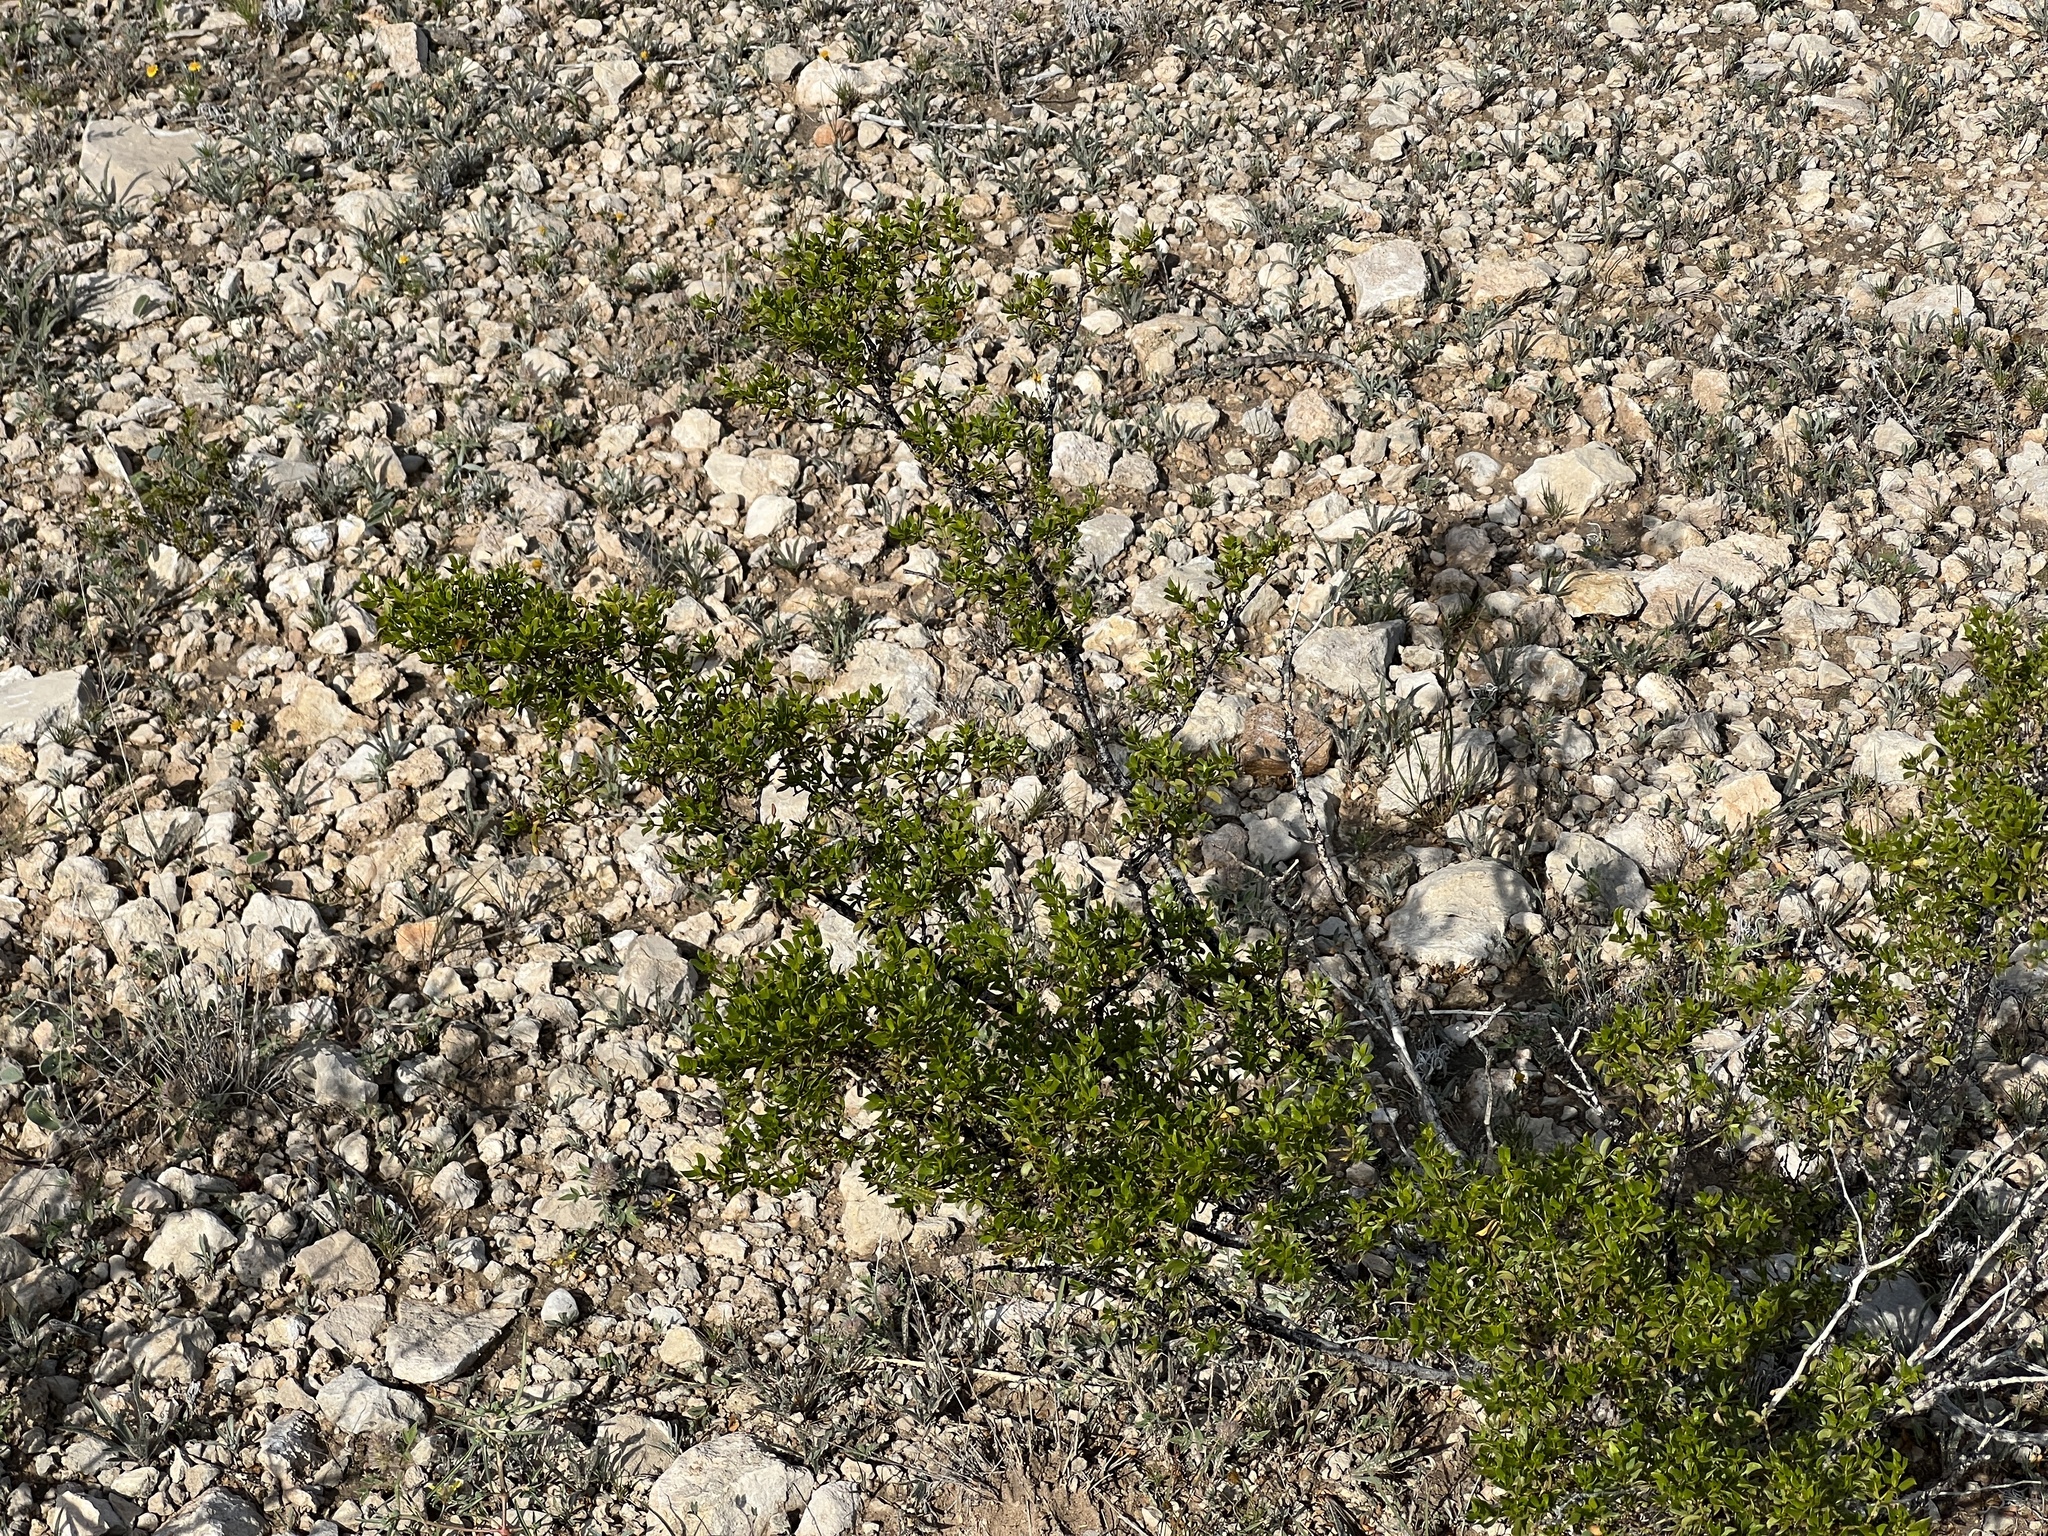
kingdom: Plantae
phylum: Tracheophyta
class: Magnoliopsida
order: Zygophyllales
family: Zygophyllaceae
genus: Larrea
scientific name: Larrea tridentata
